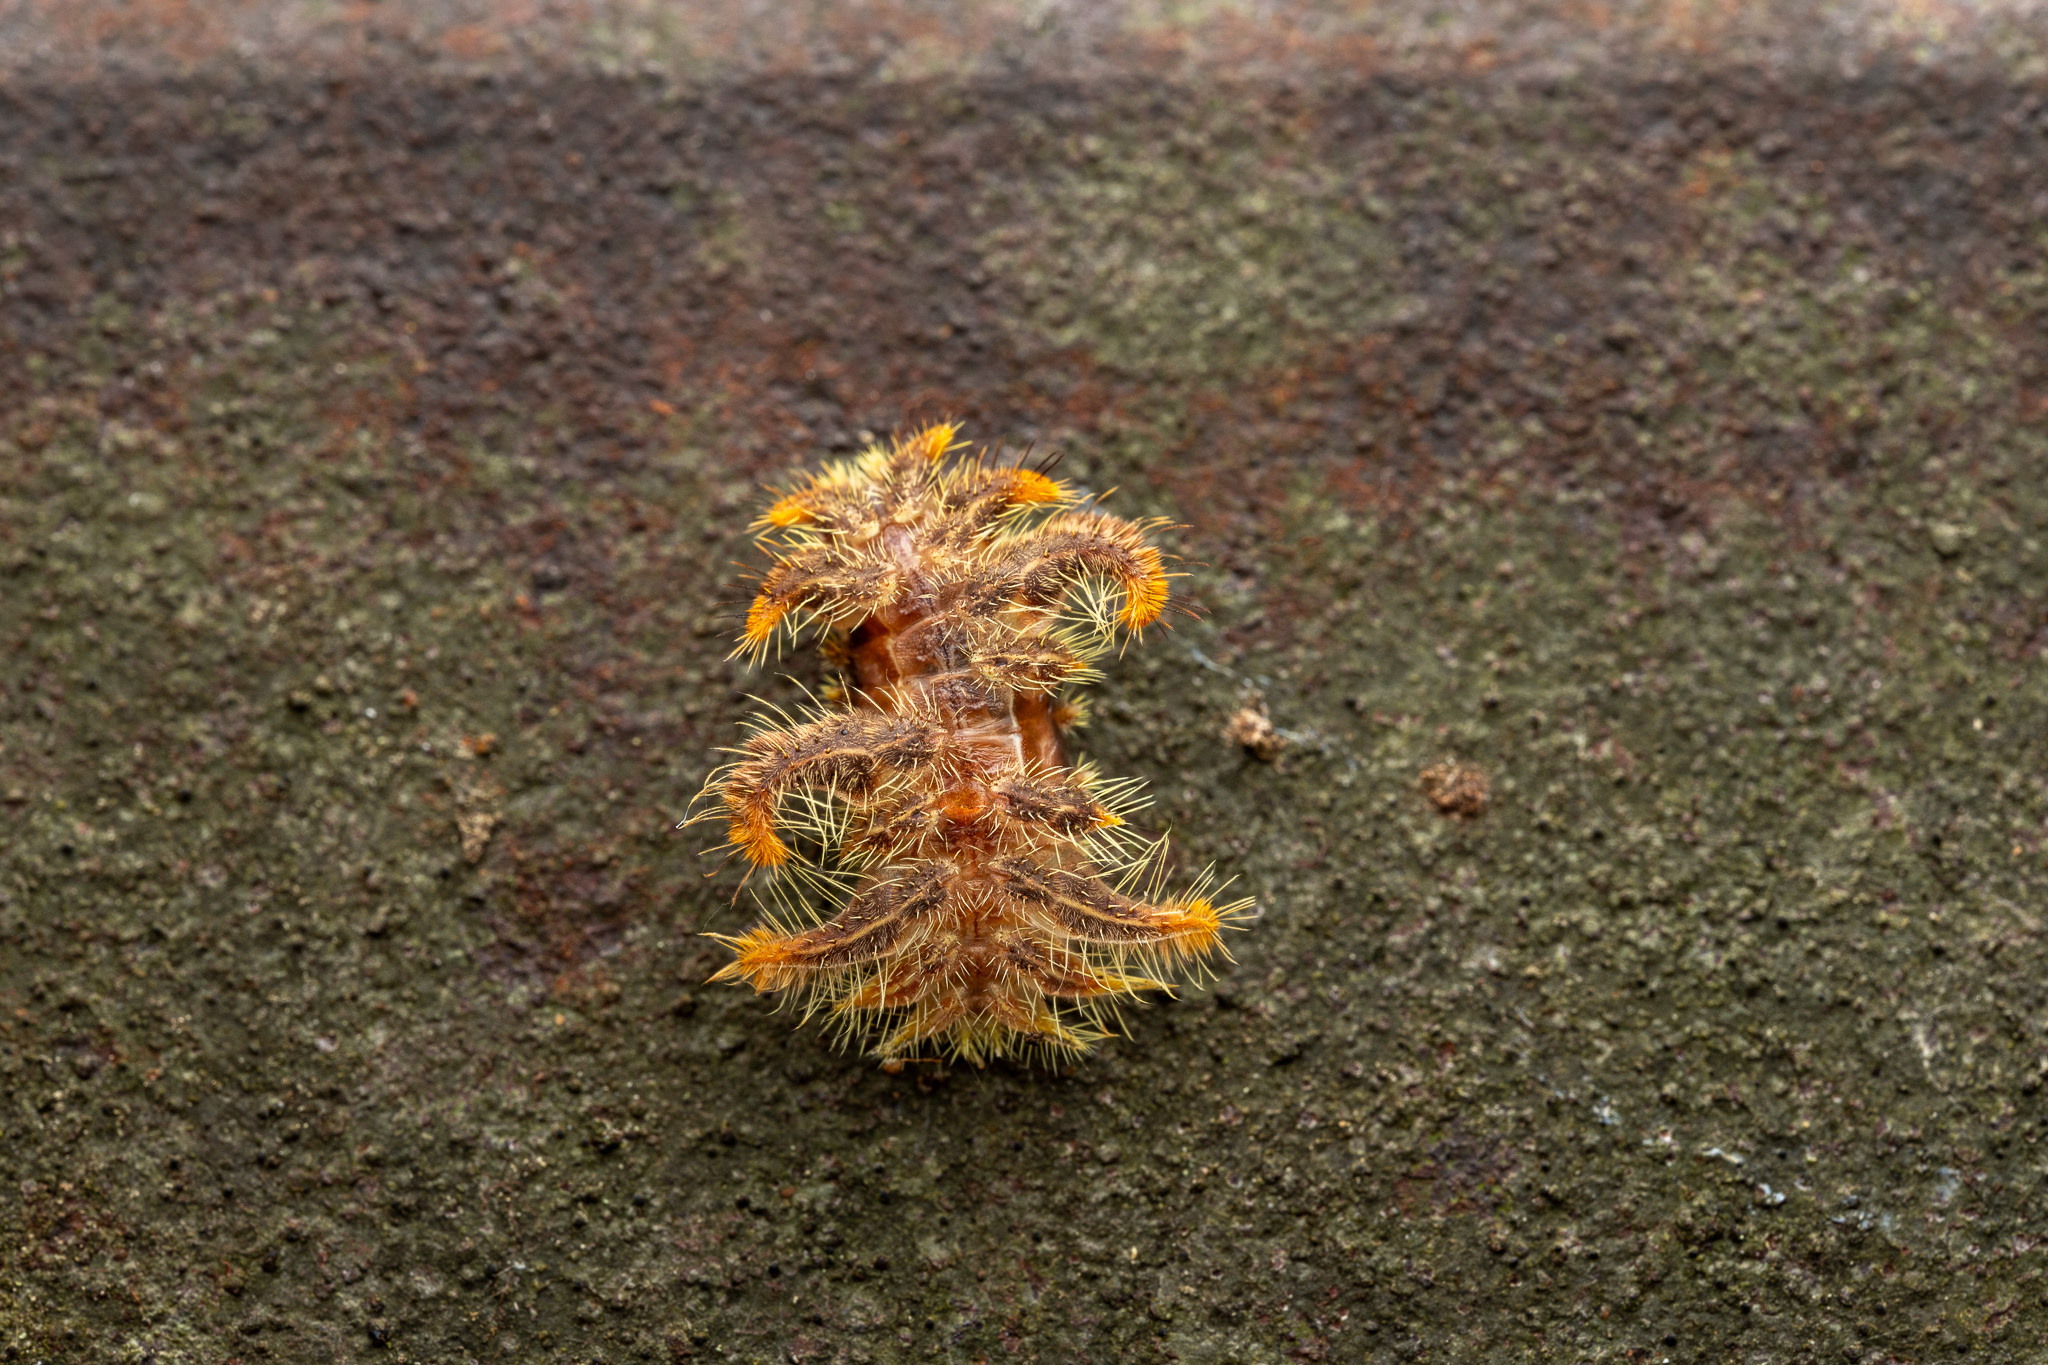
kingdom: Animalia
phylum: Arthropoda
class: Insecta
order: Lepidoptera
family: Limacodidae
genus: Phobetron
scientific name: Phobetron pithecium
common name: Hag moth
